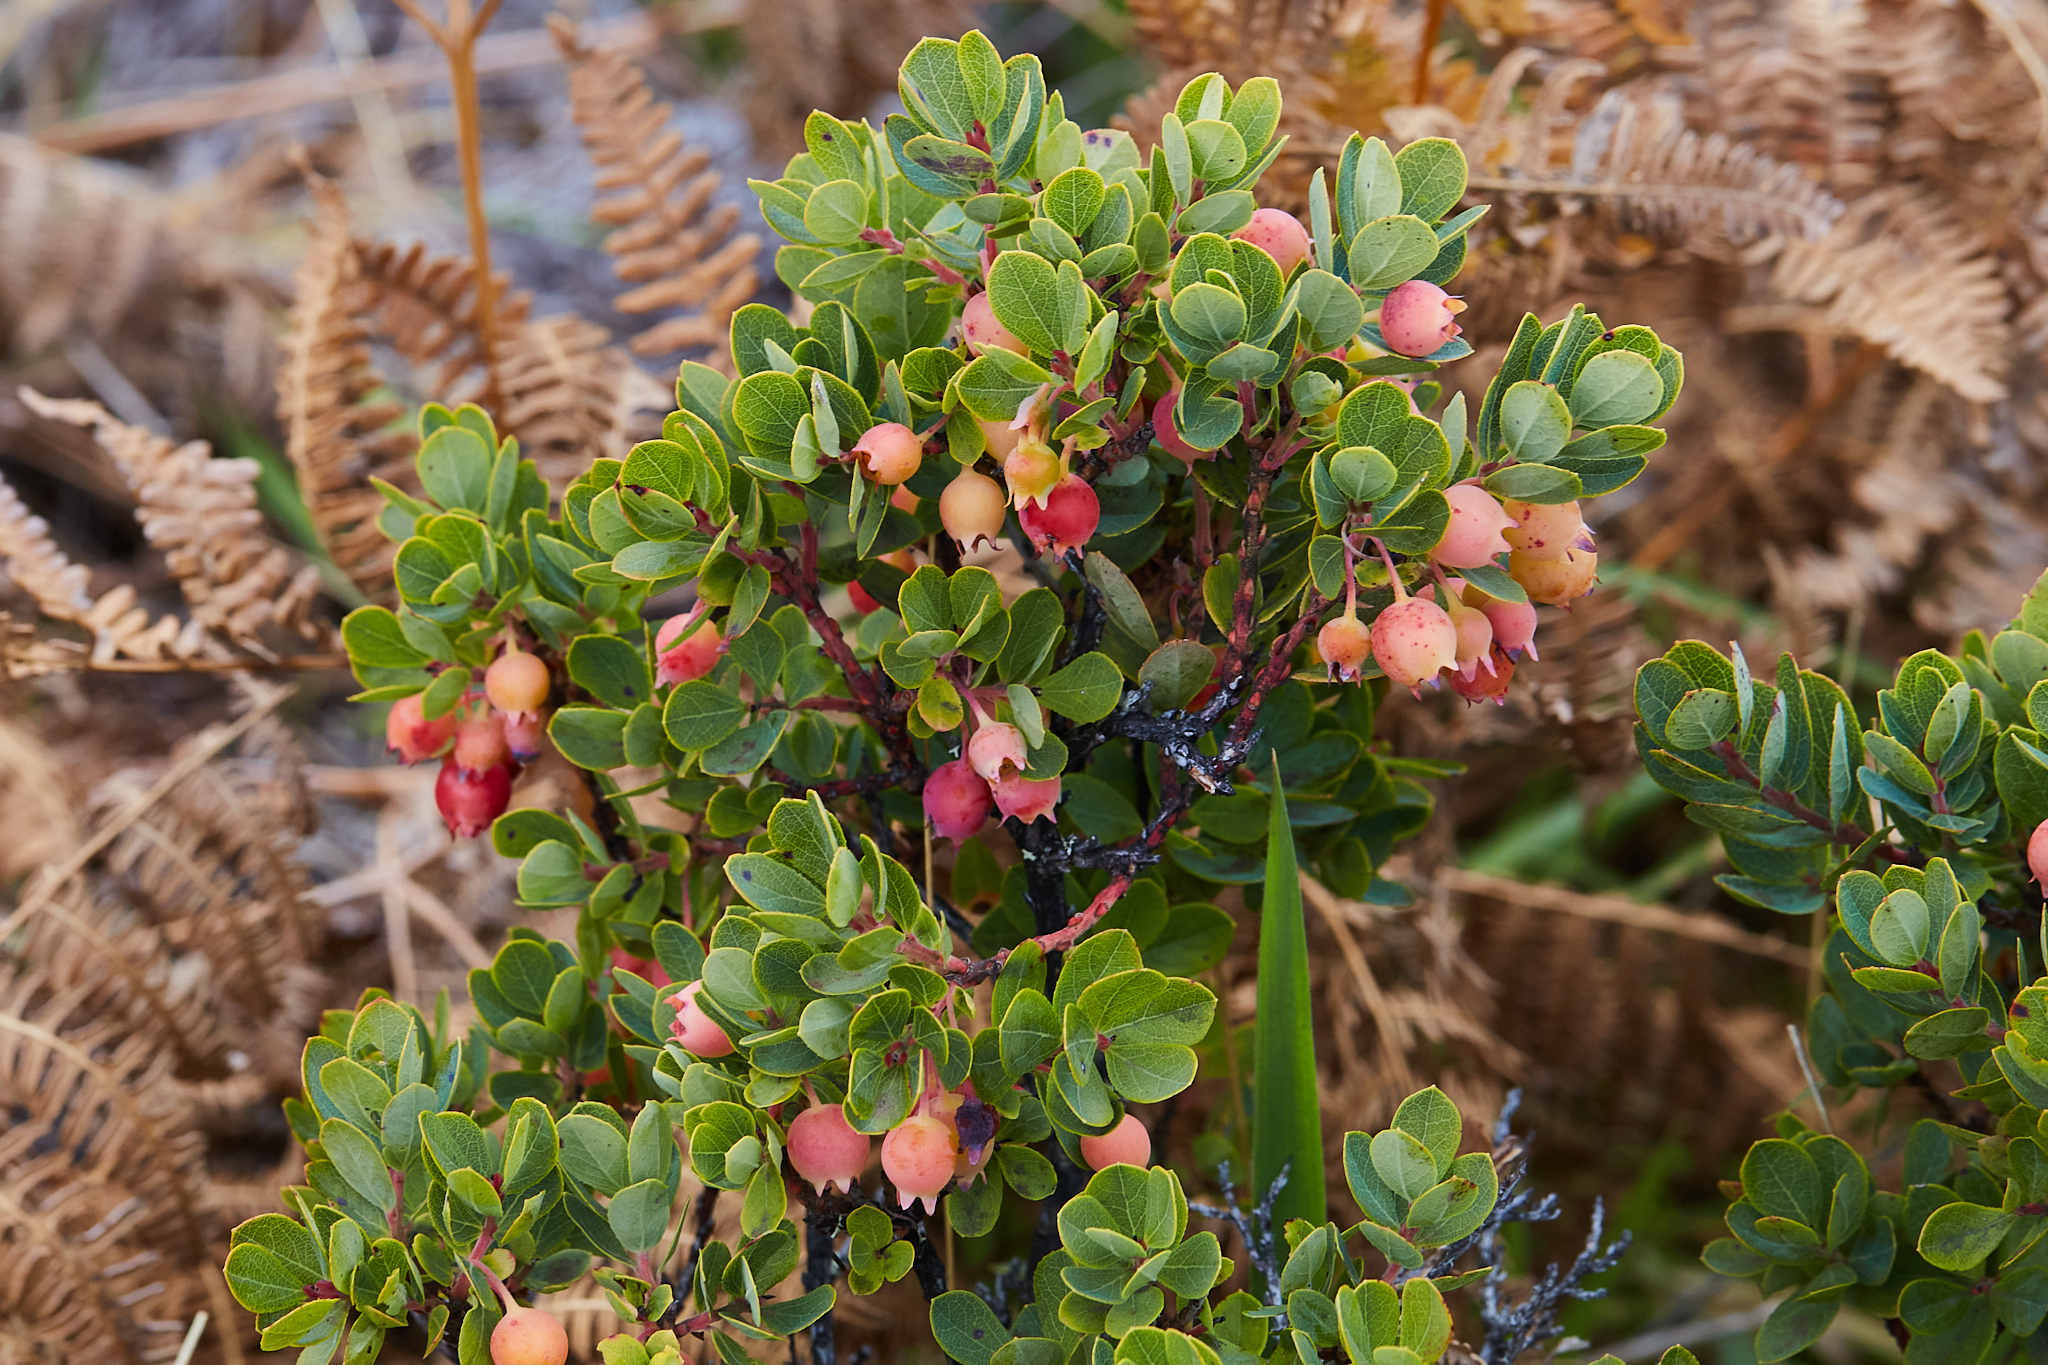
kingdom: Plantae
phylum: Tracheophyta
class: Magnoliopsida
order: Ericales
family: Ericaceae
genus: Vaccinium
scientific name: Vaccinium reticulatum
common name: Ohelo
